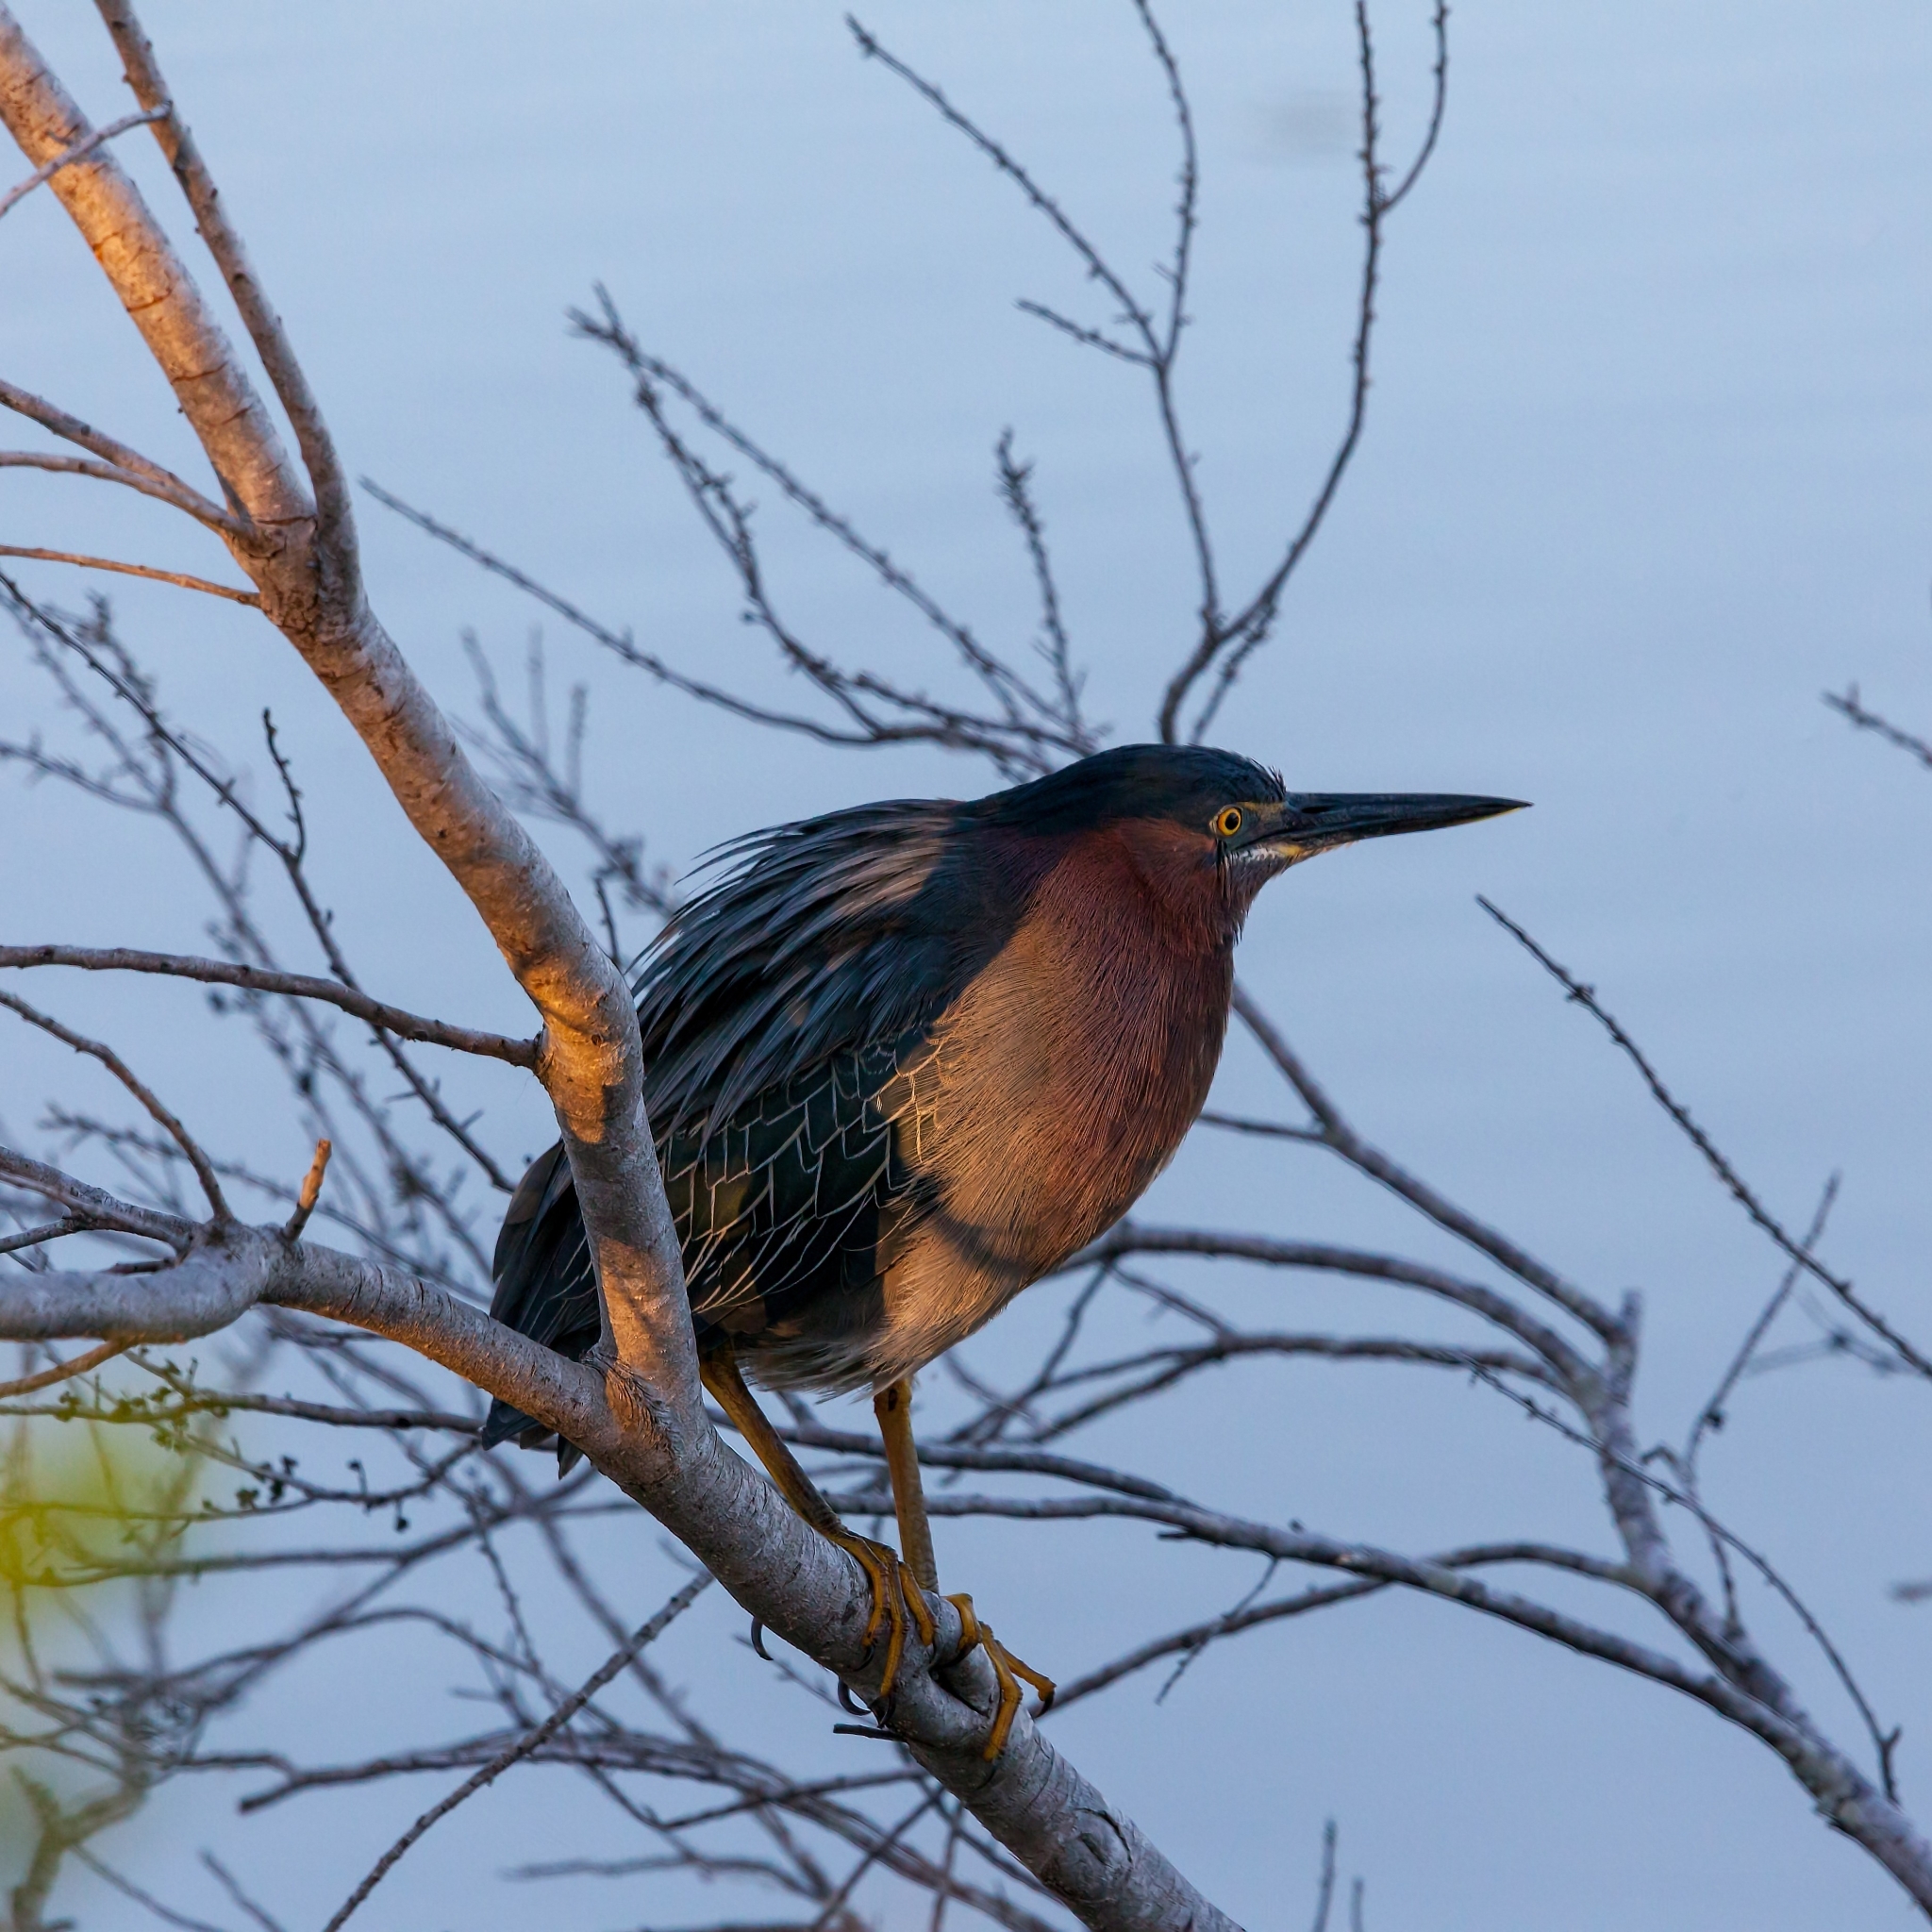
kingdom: Animalia
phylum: Chordata
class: Aves
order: Pelecaniformes
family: Ardeidae
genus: Butorides
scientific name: Butorides virescens
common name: Green heron
